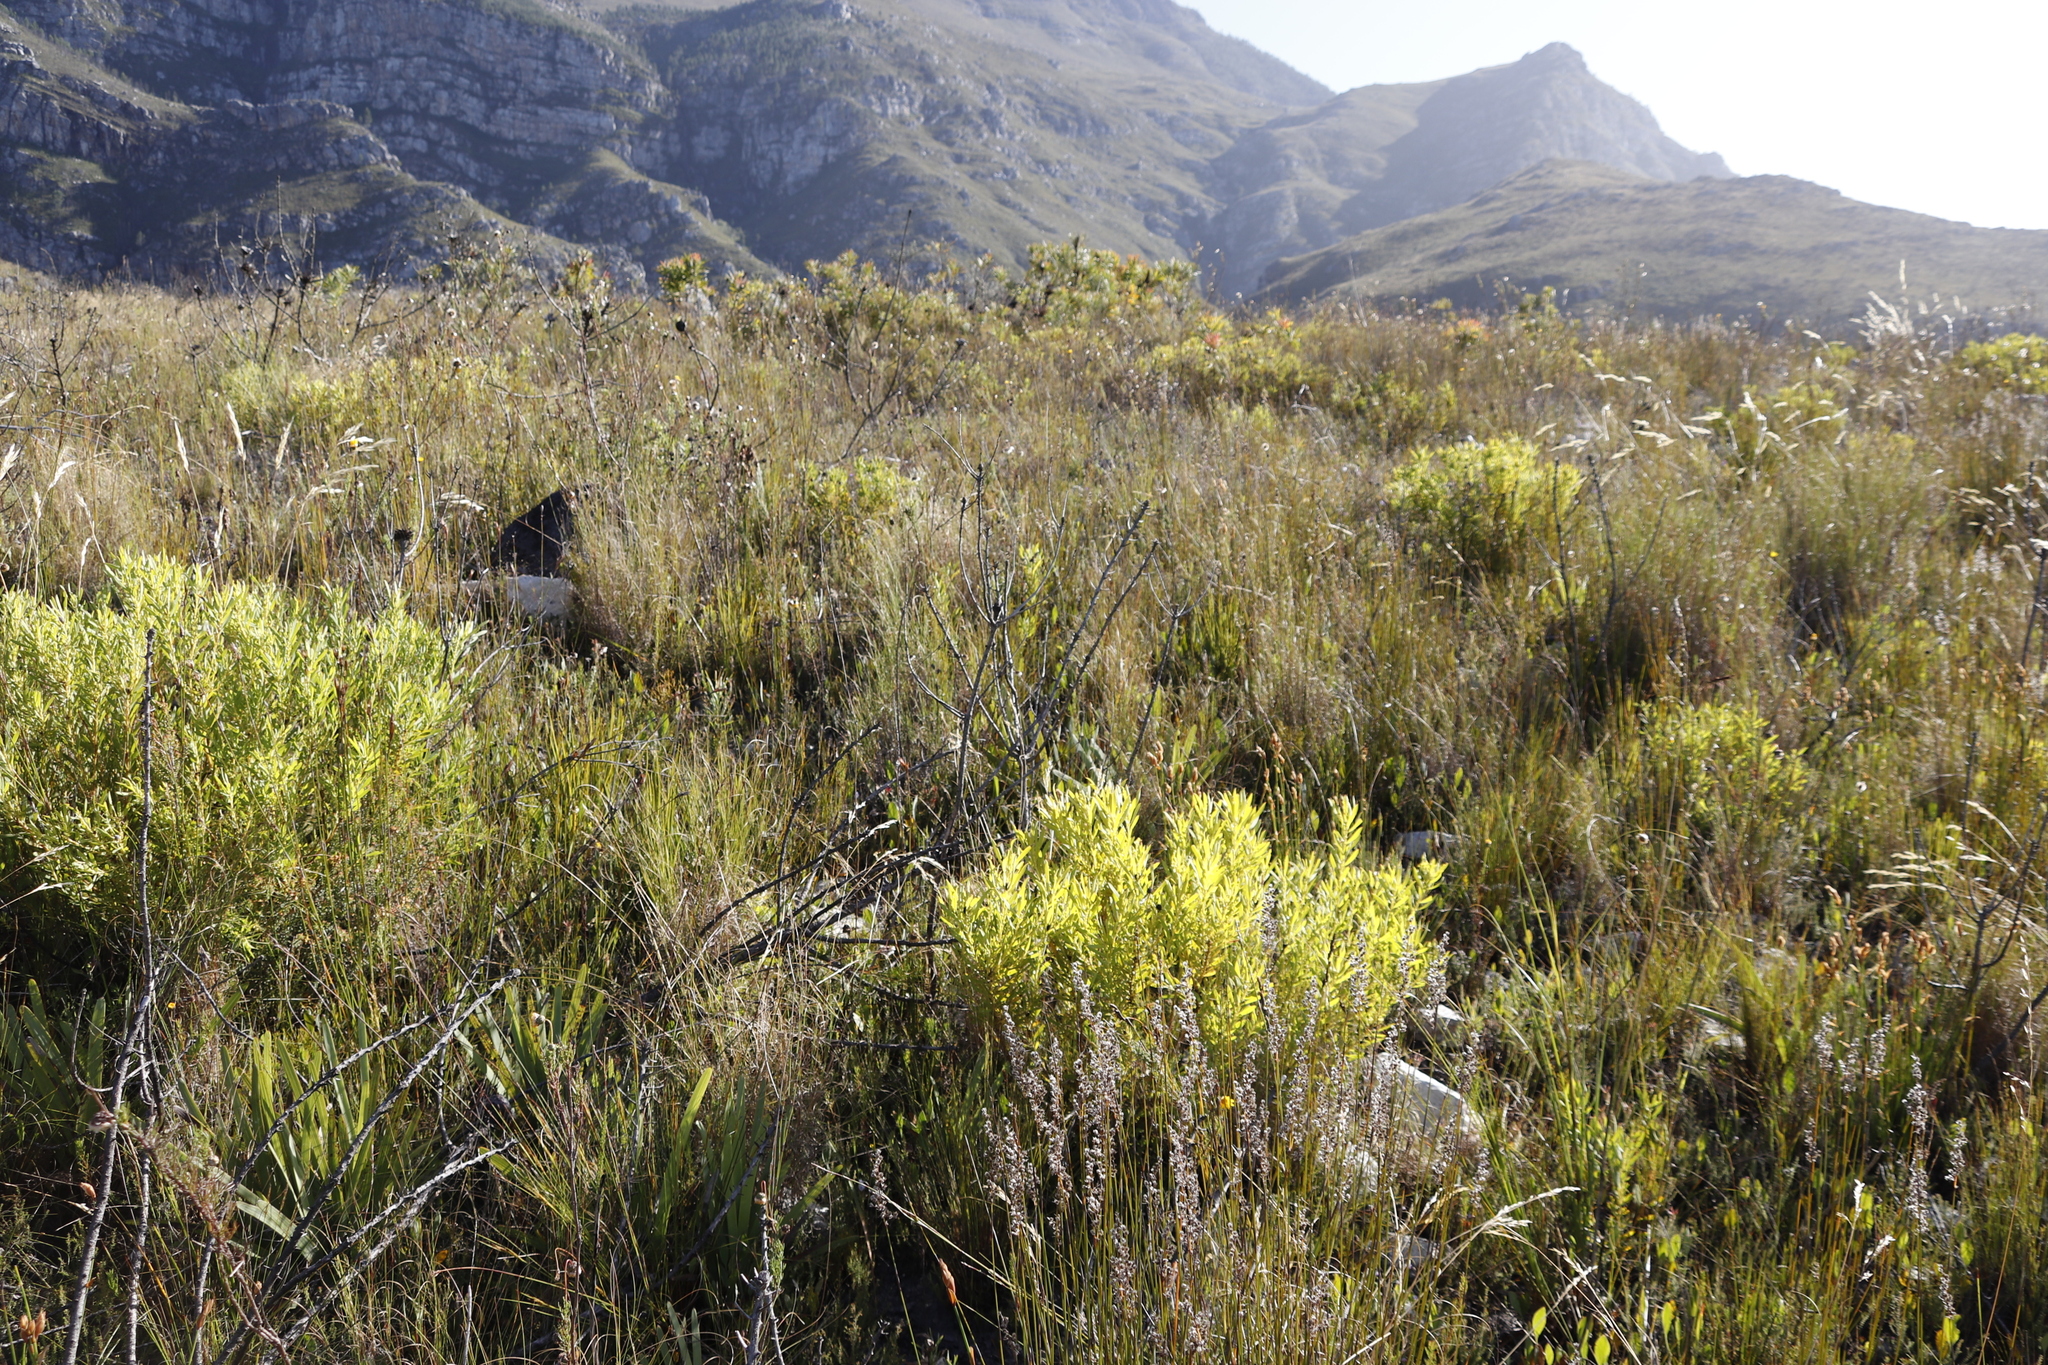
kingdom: Plantae
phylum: Tracheophyta
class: Magnoliopsida
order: Proteales
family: Proteaceae
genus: Leucadendron
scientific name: Leucadendron salignum
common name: Common sunshine conebush
